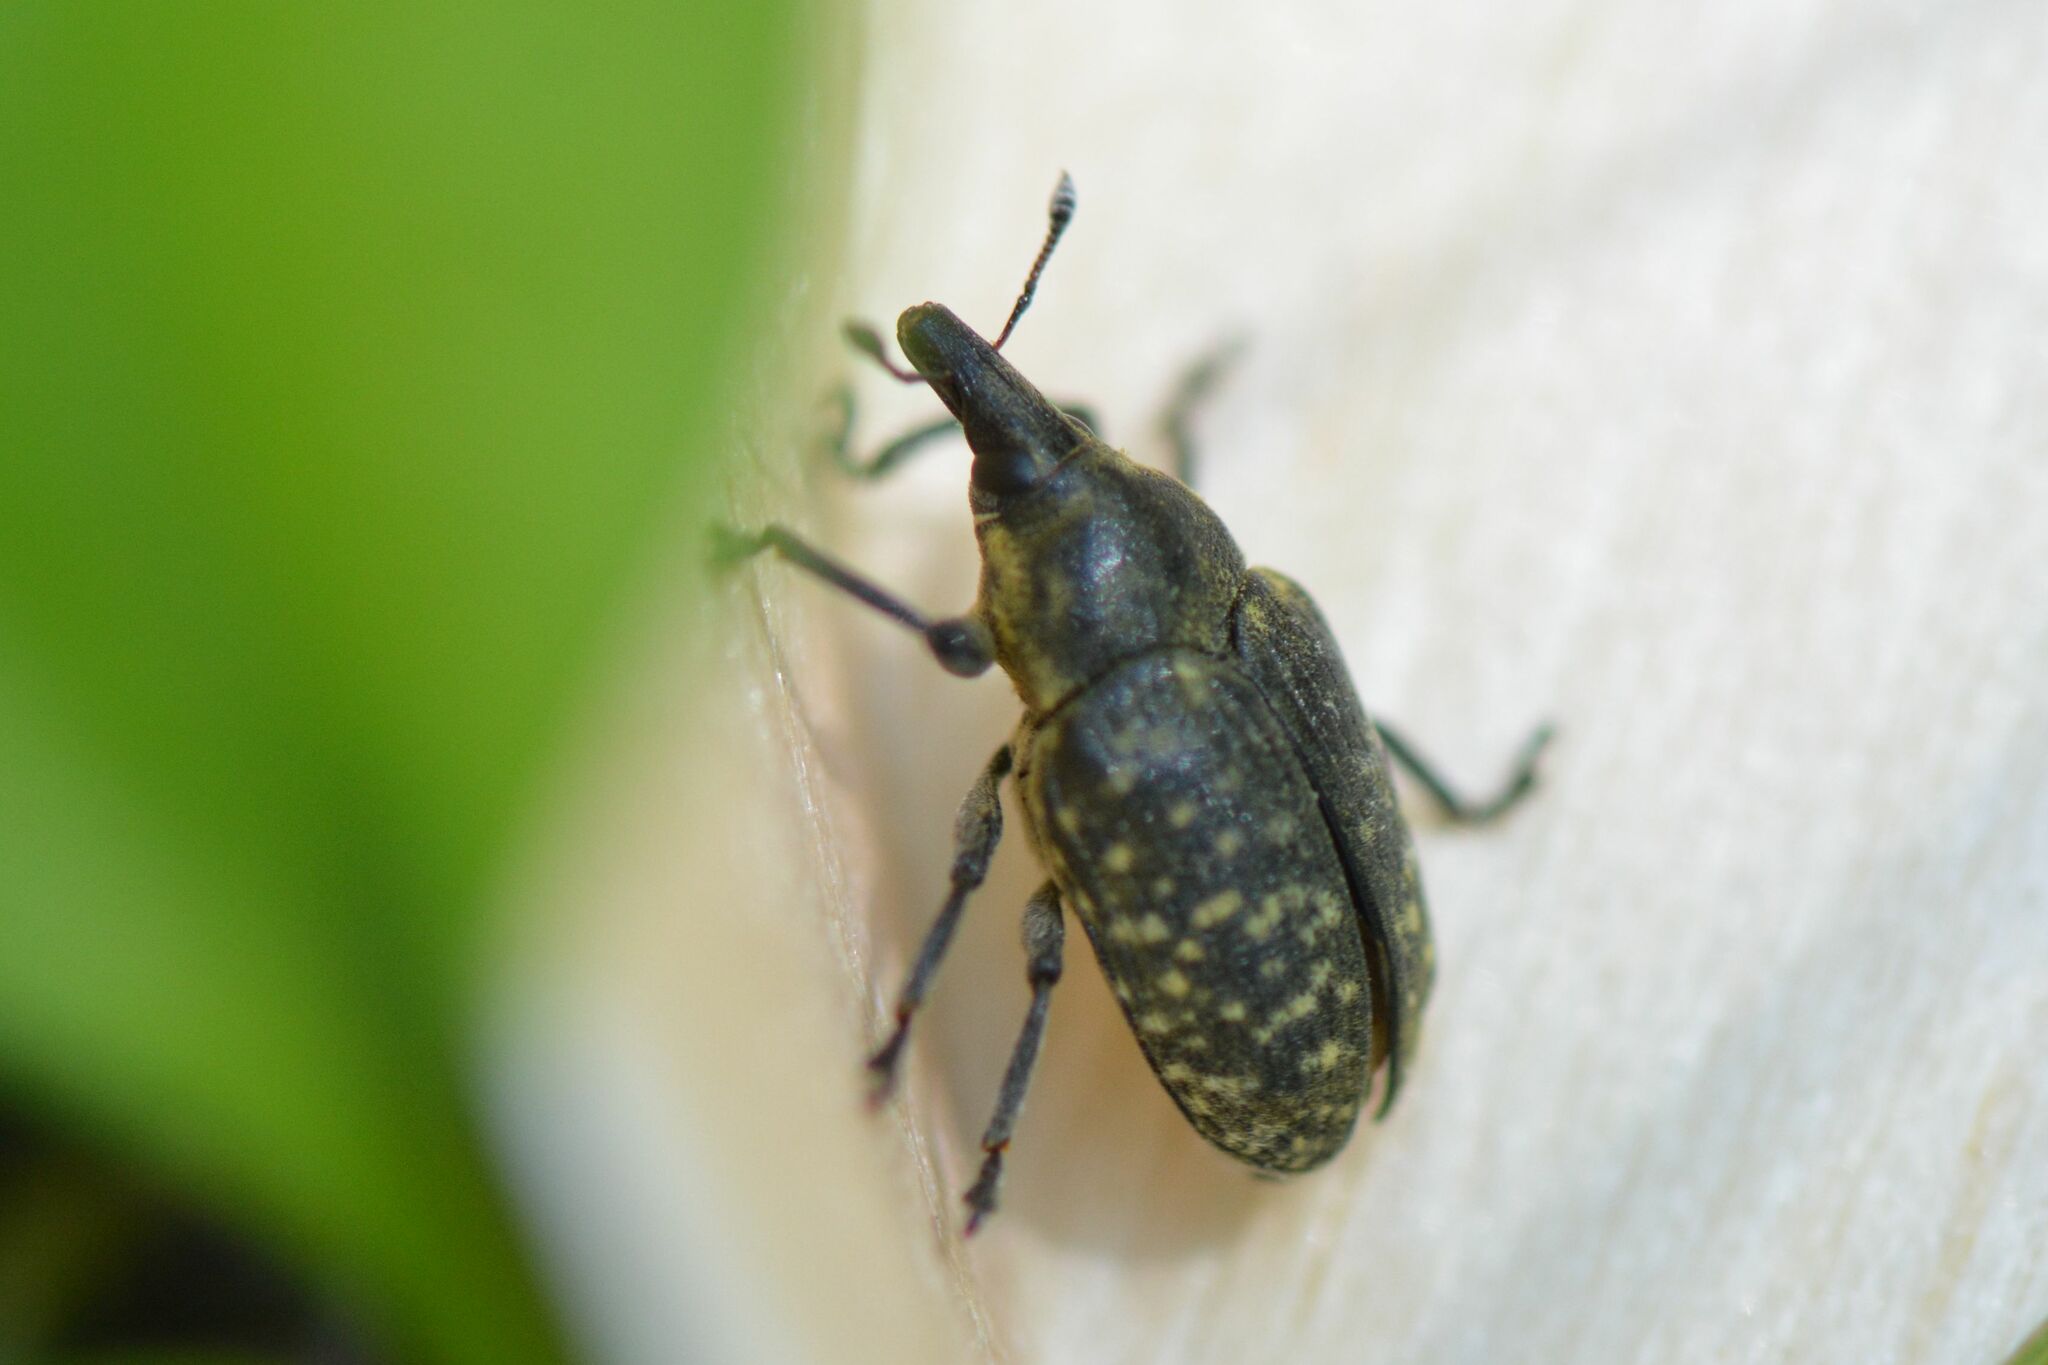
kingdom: Animalia
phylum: Arthropoda
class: Insecta
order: Coleoptera
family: Curculionidae
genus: Larinus
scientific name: Larinus turbinatus
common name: Weevil
